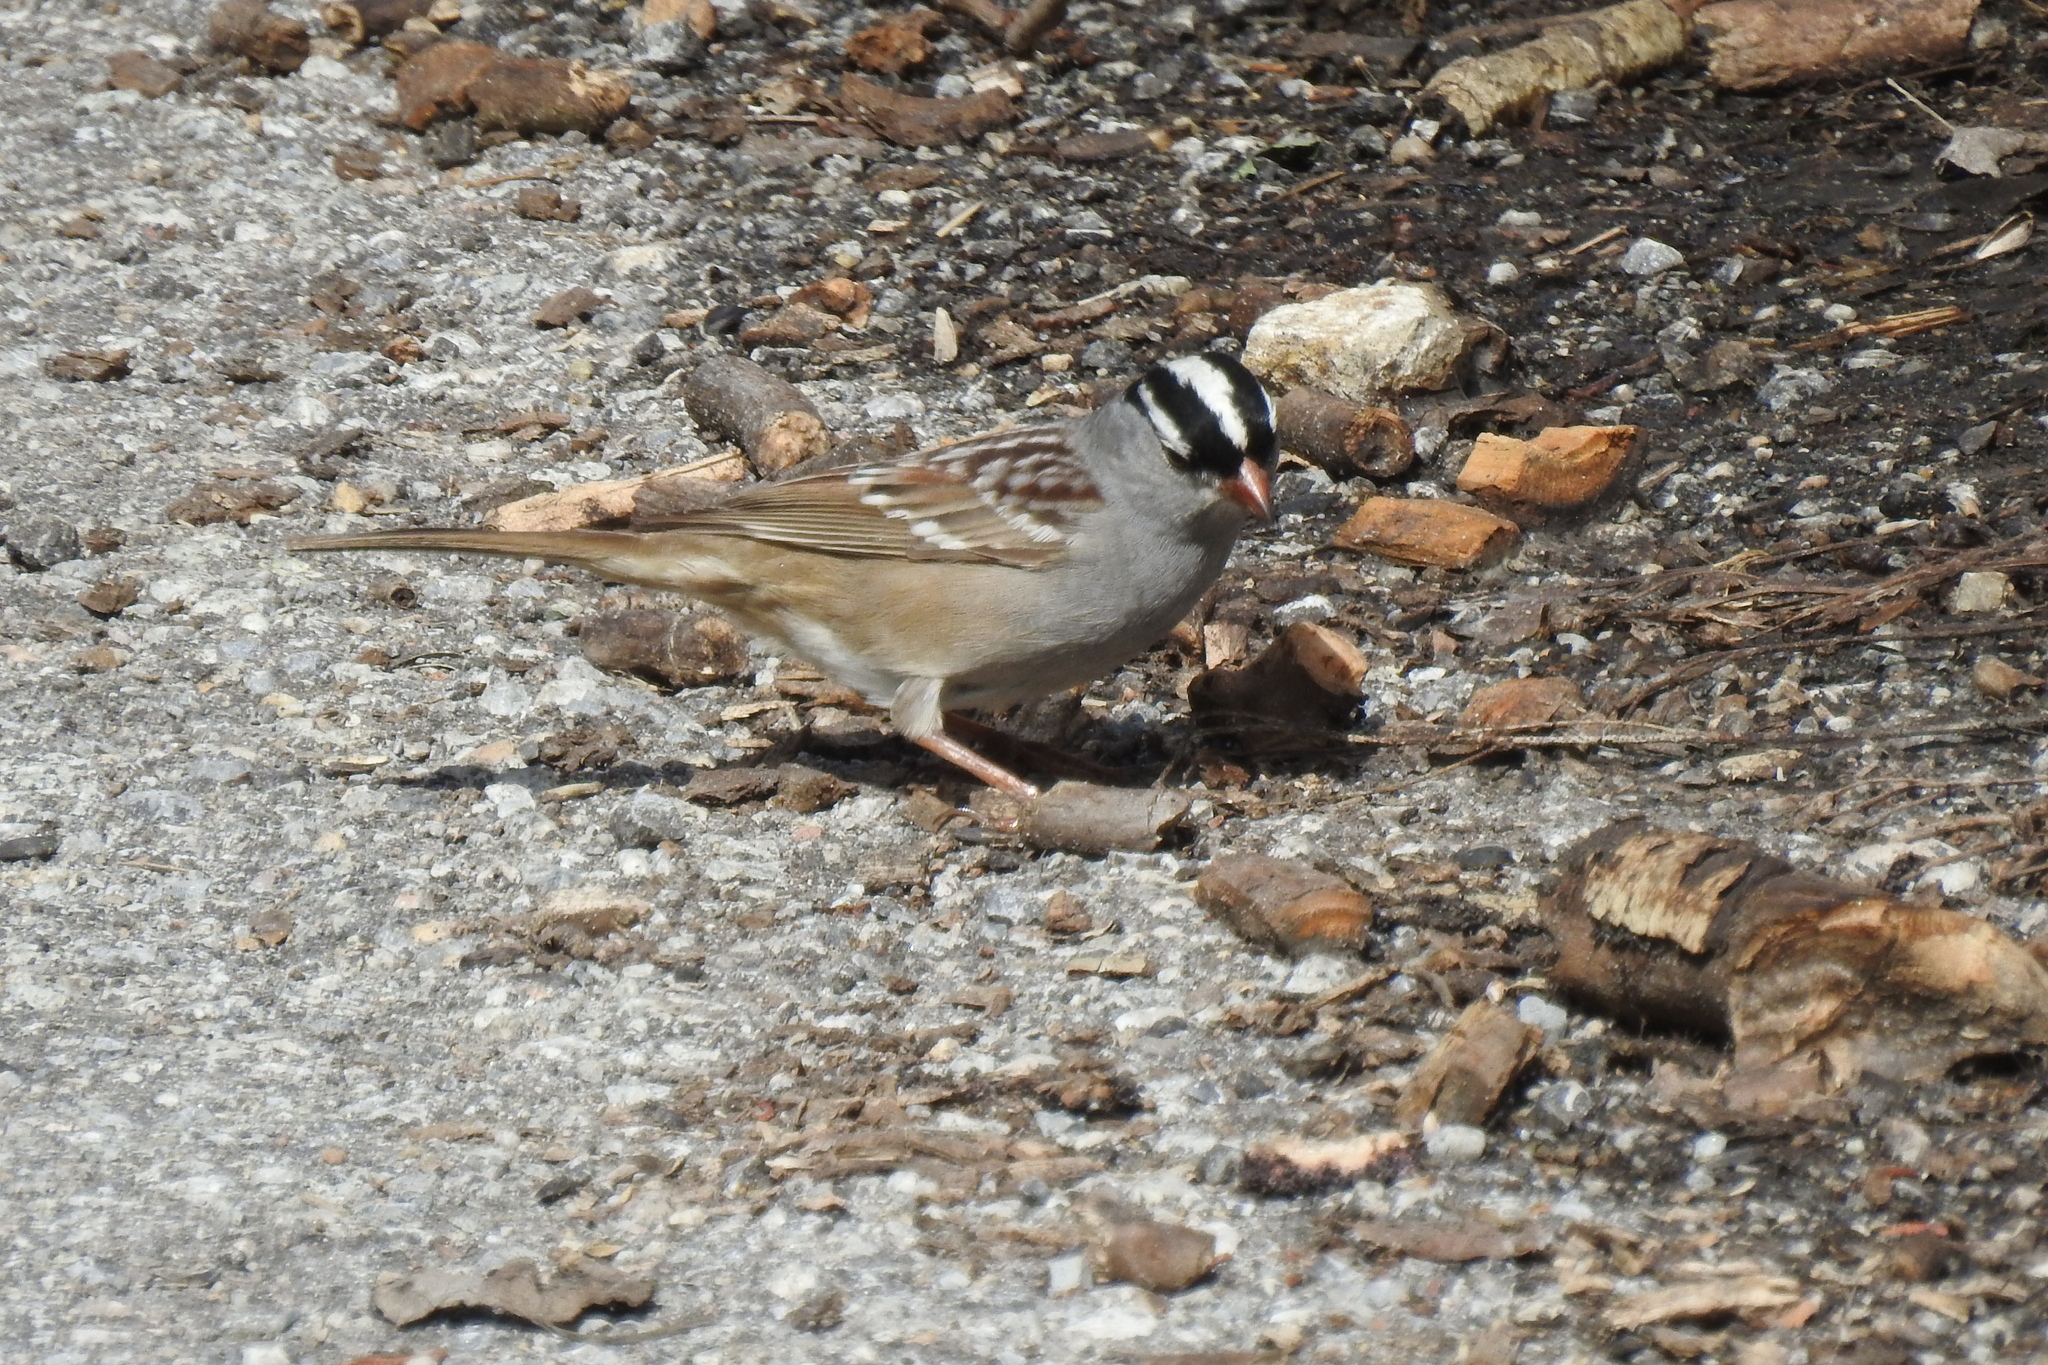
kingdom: Animalia
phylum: Chordata
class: Aves
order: Passeriformes
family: Passerellidae
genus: Zonotrichia
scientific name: Zonotrichia leucophrys
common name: White-crowned sparrow
